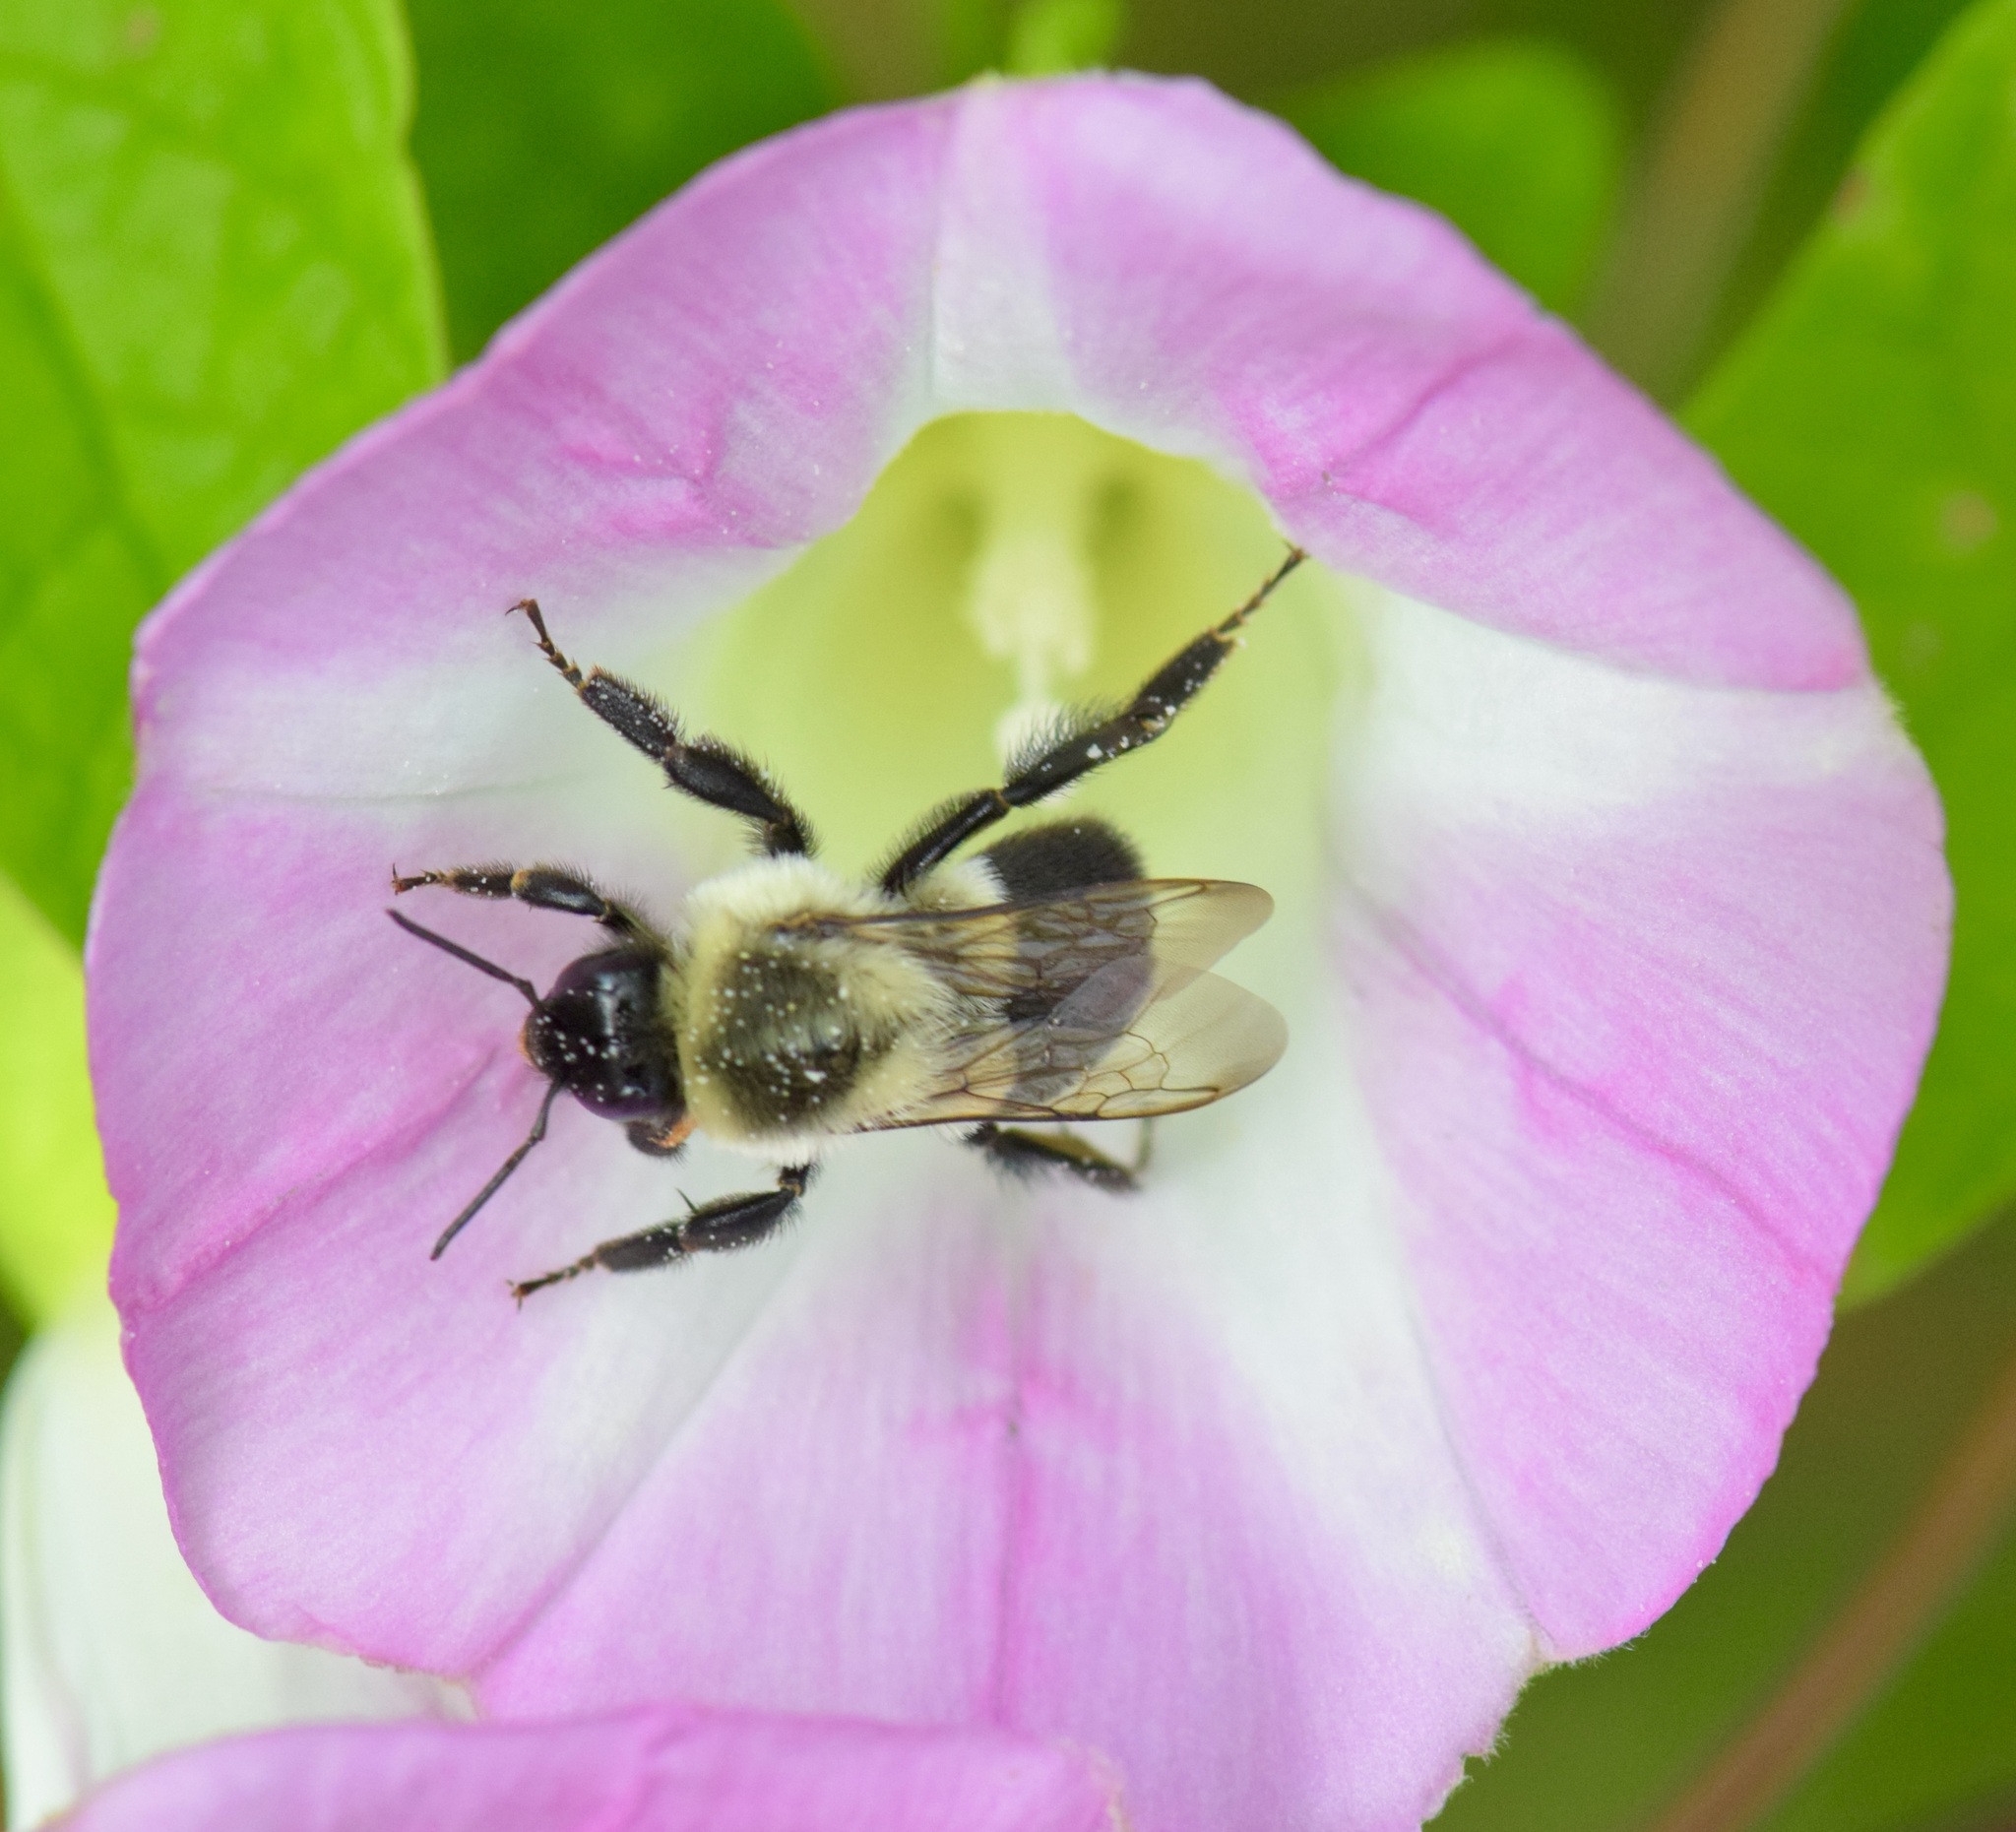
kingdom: Animalia
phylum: Arthropoda
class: Insecta
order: Hymenoptera
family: Apidae
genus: Bombus
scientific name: Bombus impatiens
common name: Common eastern bumble bee
